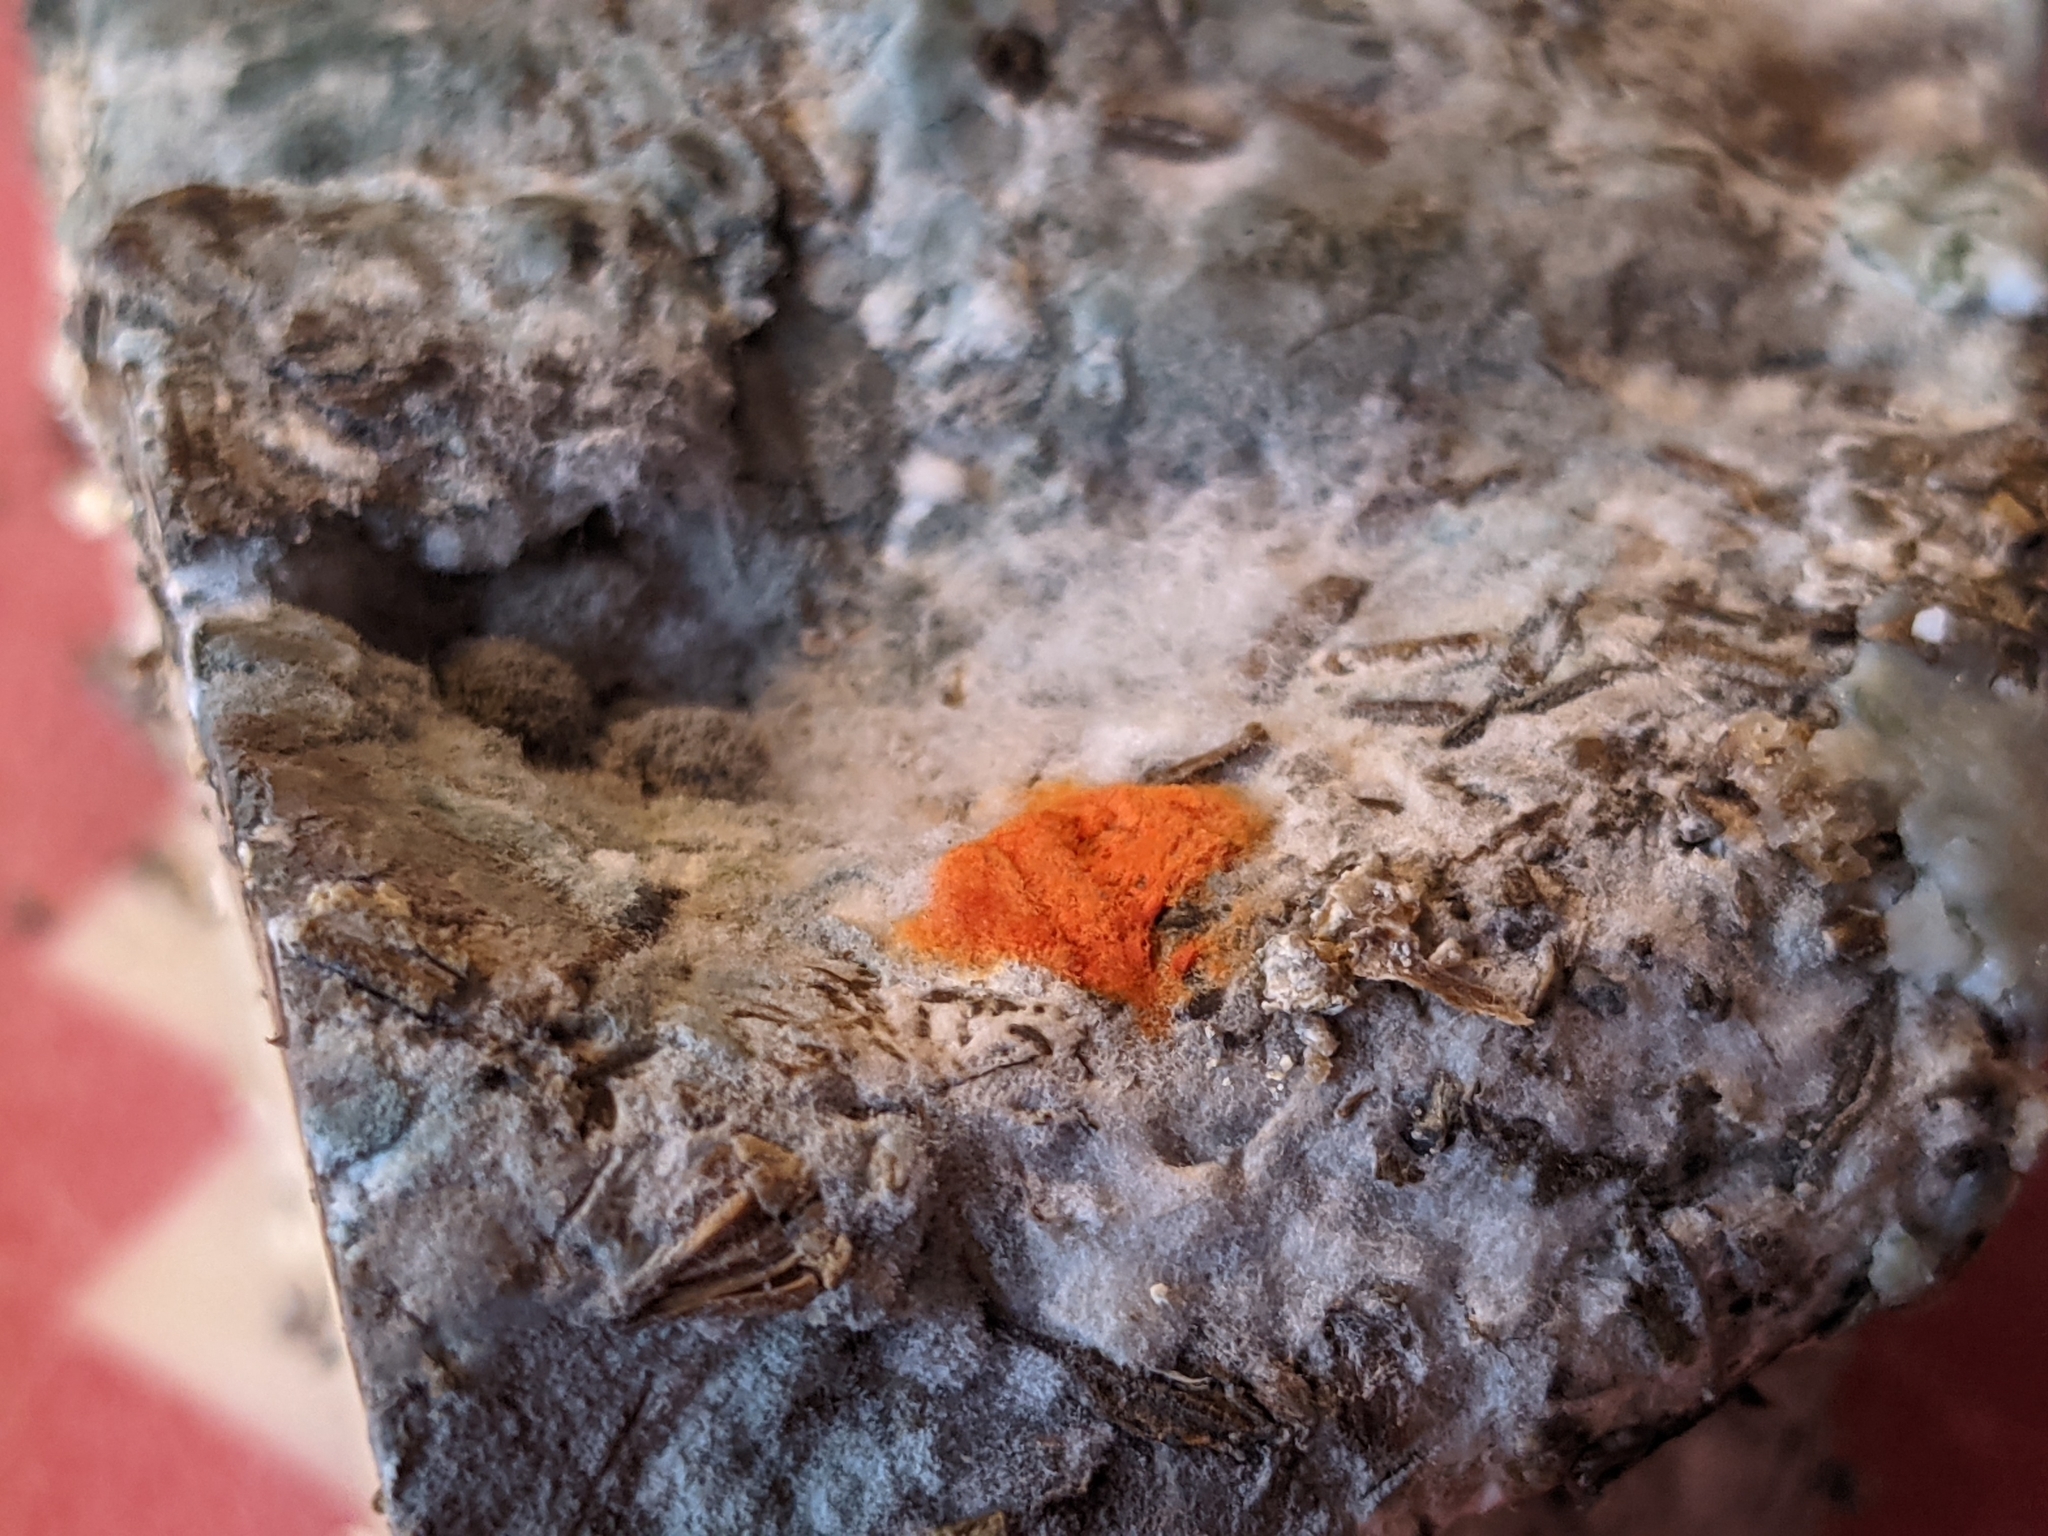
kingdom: Fungi
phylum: Ascomycota
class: Saccharomycetes
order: Saccharomycetales
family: Saccharomycetaceae
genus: Saccharomyces
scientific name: Saccharomyces cerevisiae
